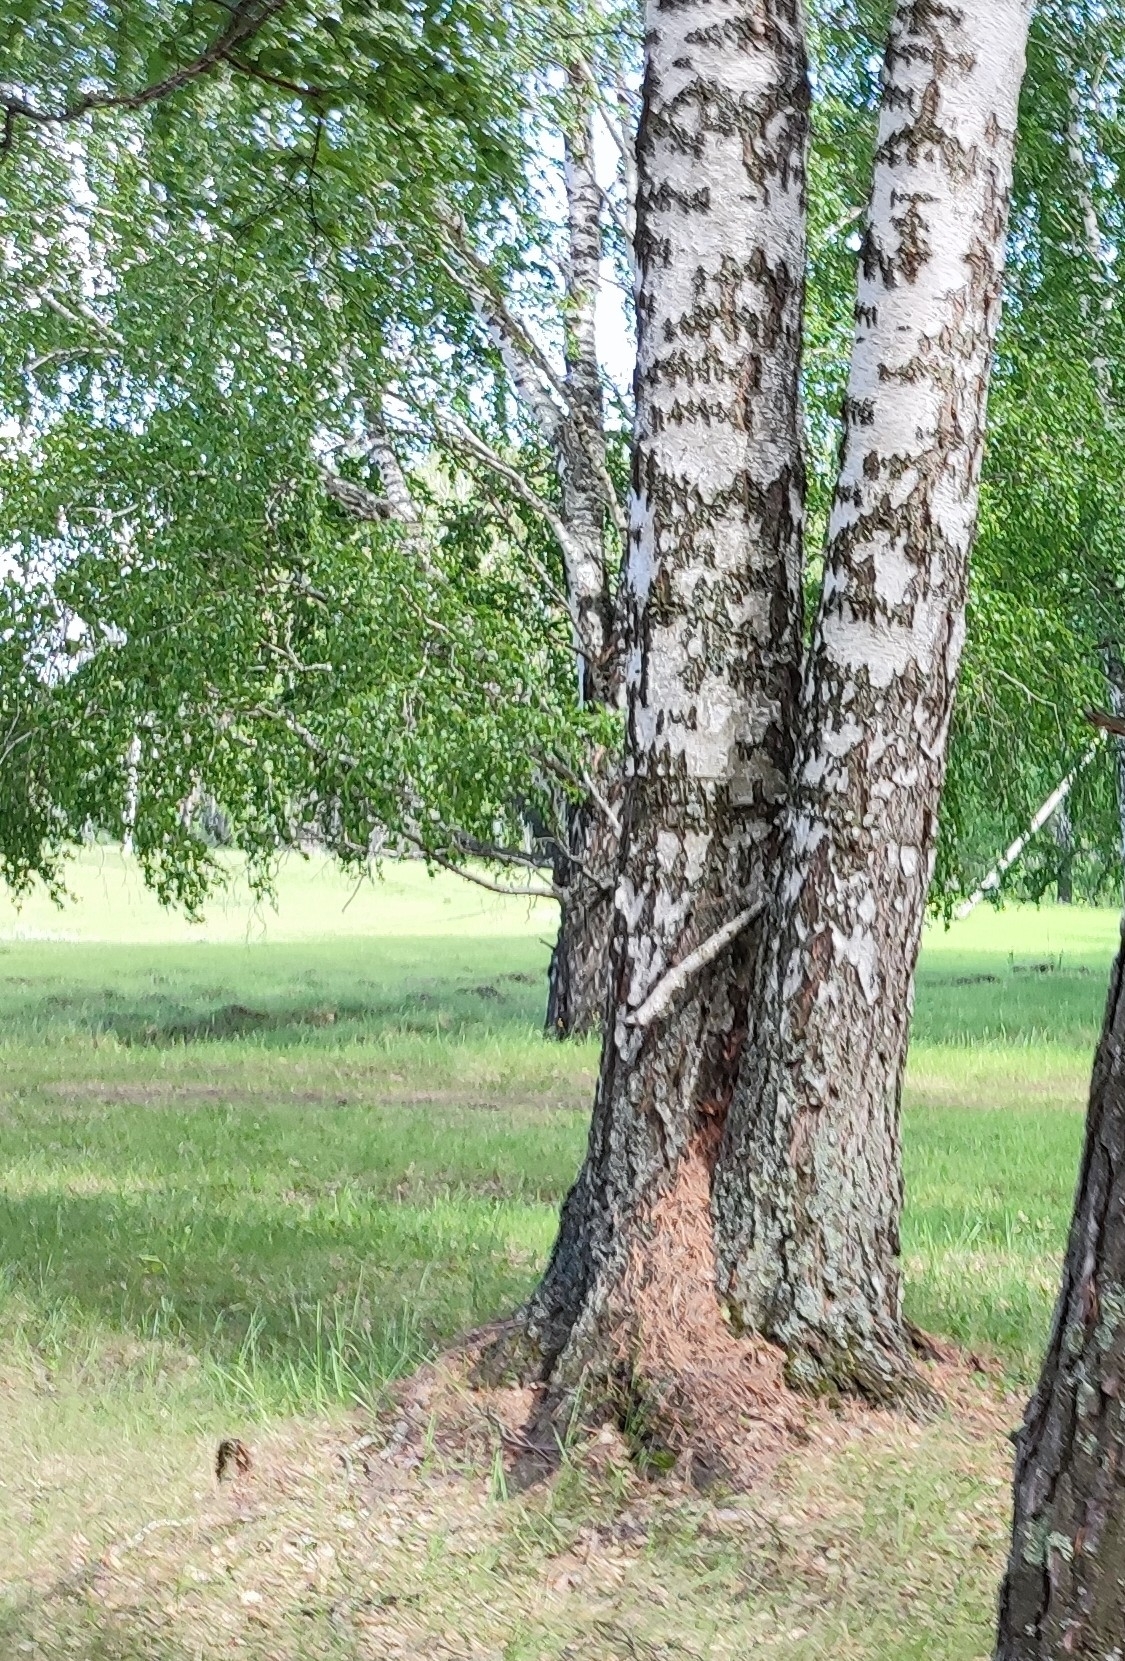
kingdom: Plantae
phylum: Tracheophyta
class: Magnoliopsida
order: Fagales
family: Betulaceae
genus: Betula
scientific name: Betula pendula
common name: Silver birch
